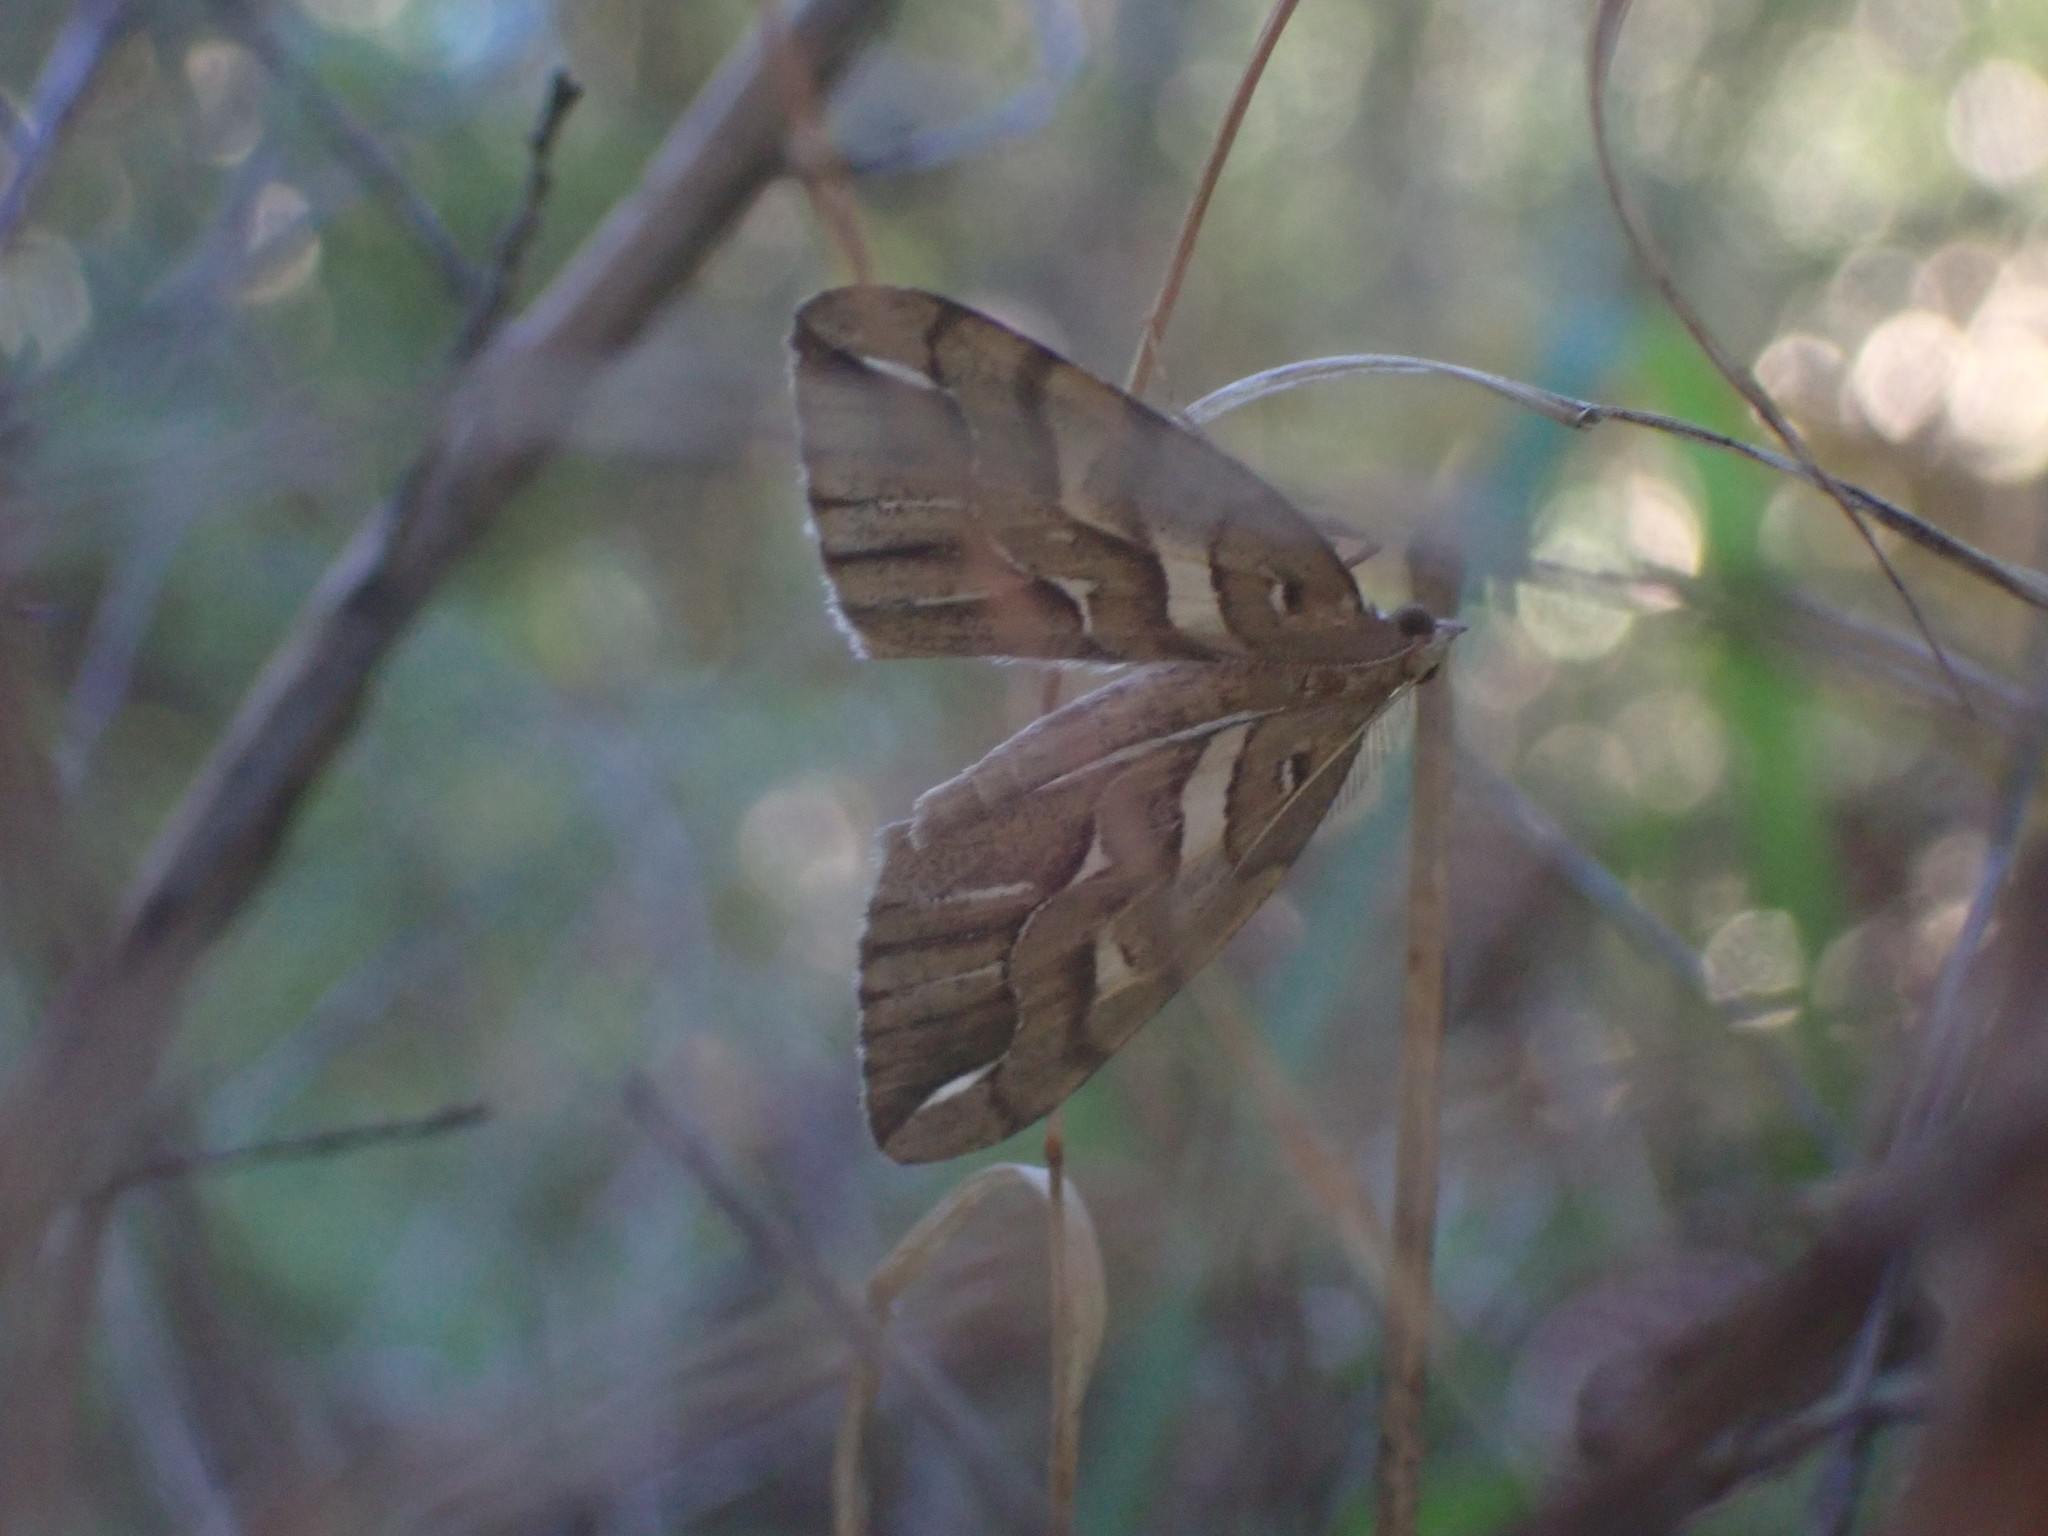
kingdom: Animalia
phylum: Arthropoda
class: Insecta
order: Lepidoptera
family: Geometridae
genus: Chalastra
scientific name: Chalastra aristarcha
